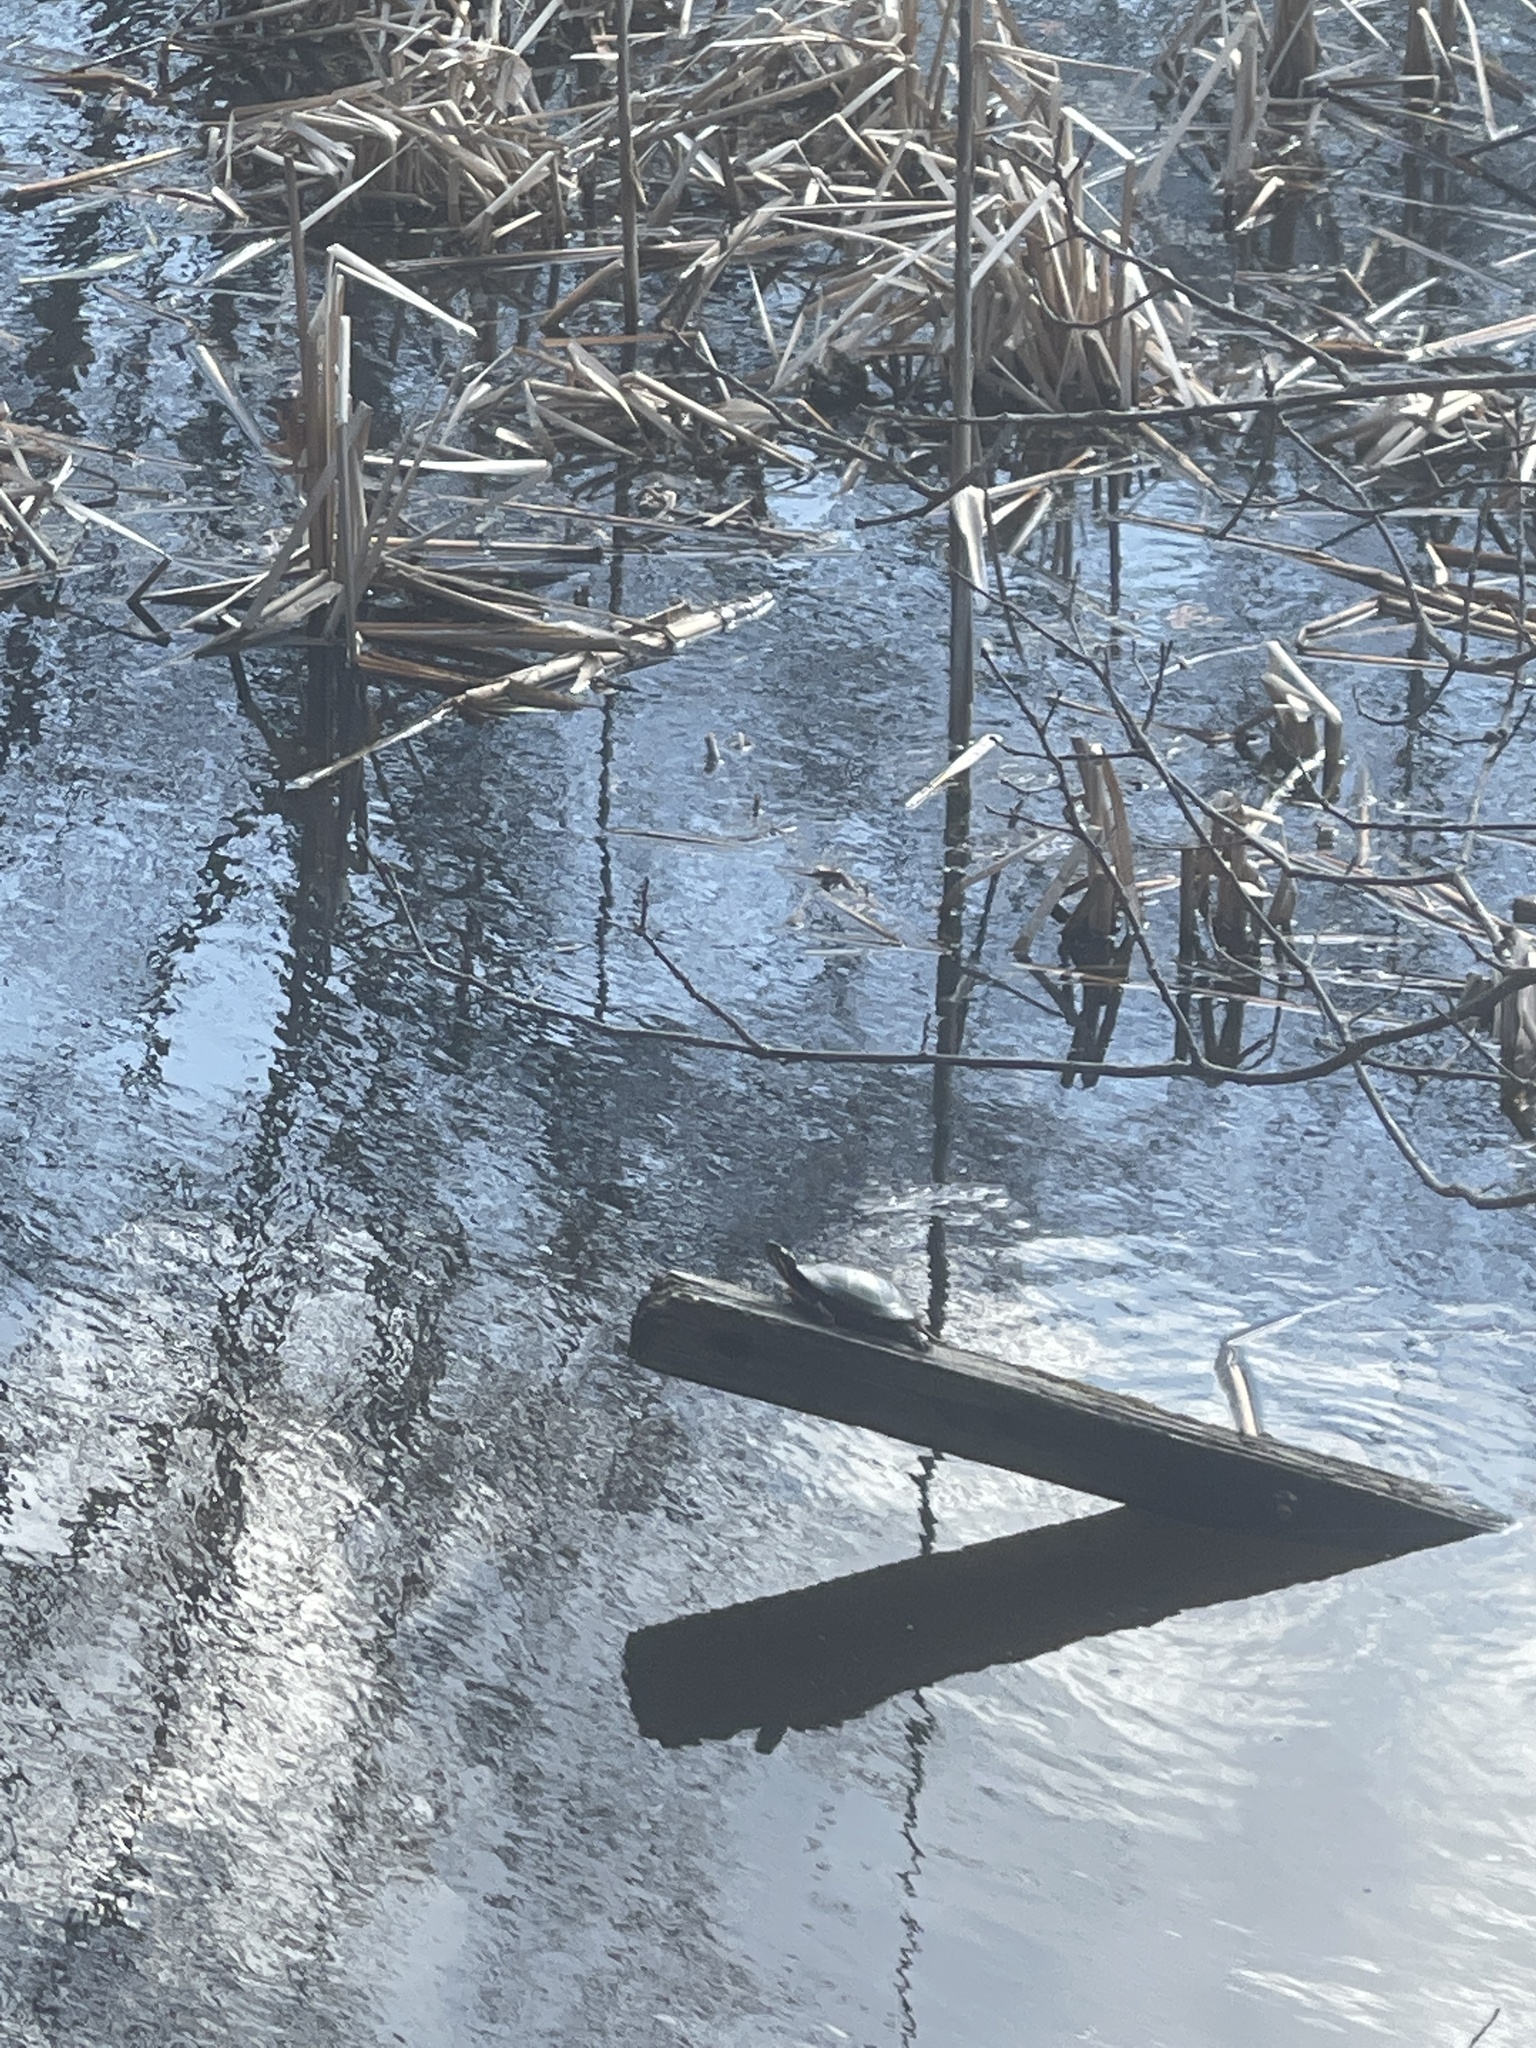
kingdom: Animalia
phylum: Chordata
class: Testudines
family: Emydidae
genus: Chrysemys
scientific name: Chrysemys picta
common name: Painted turtle
